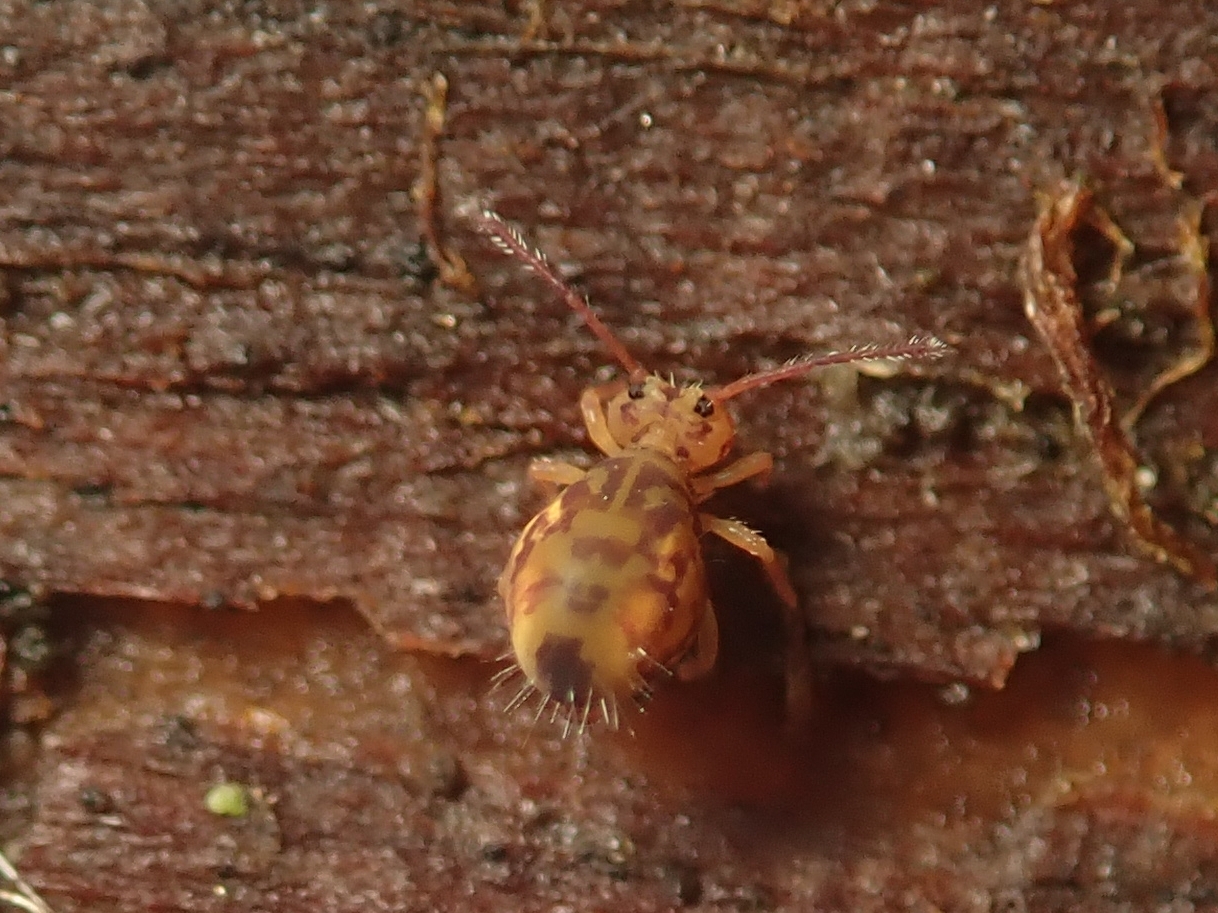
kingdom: Animalia
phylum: Arthropoda
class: Collembola
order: Symphypleona
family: Dicyrtomidae
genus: Dicyrtomina
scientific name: Dicyrtomina ornata
